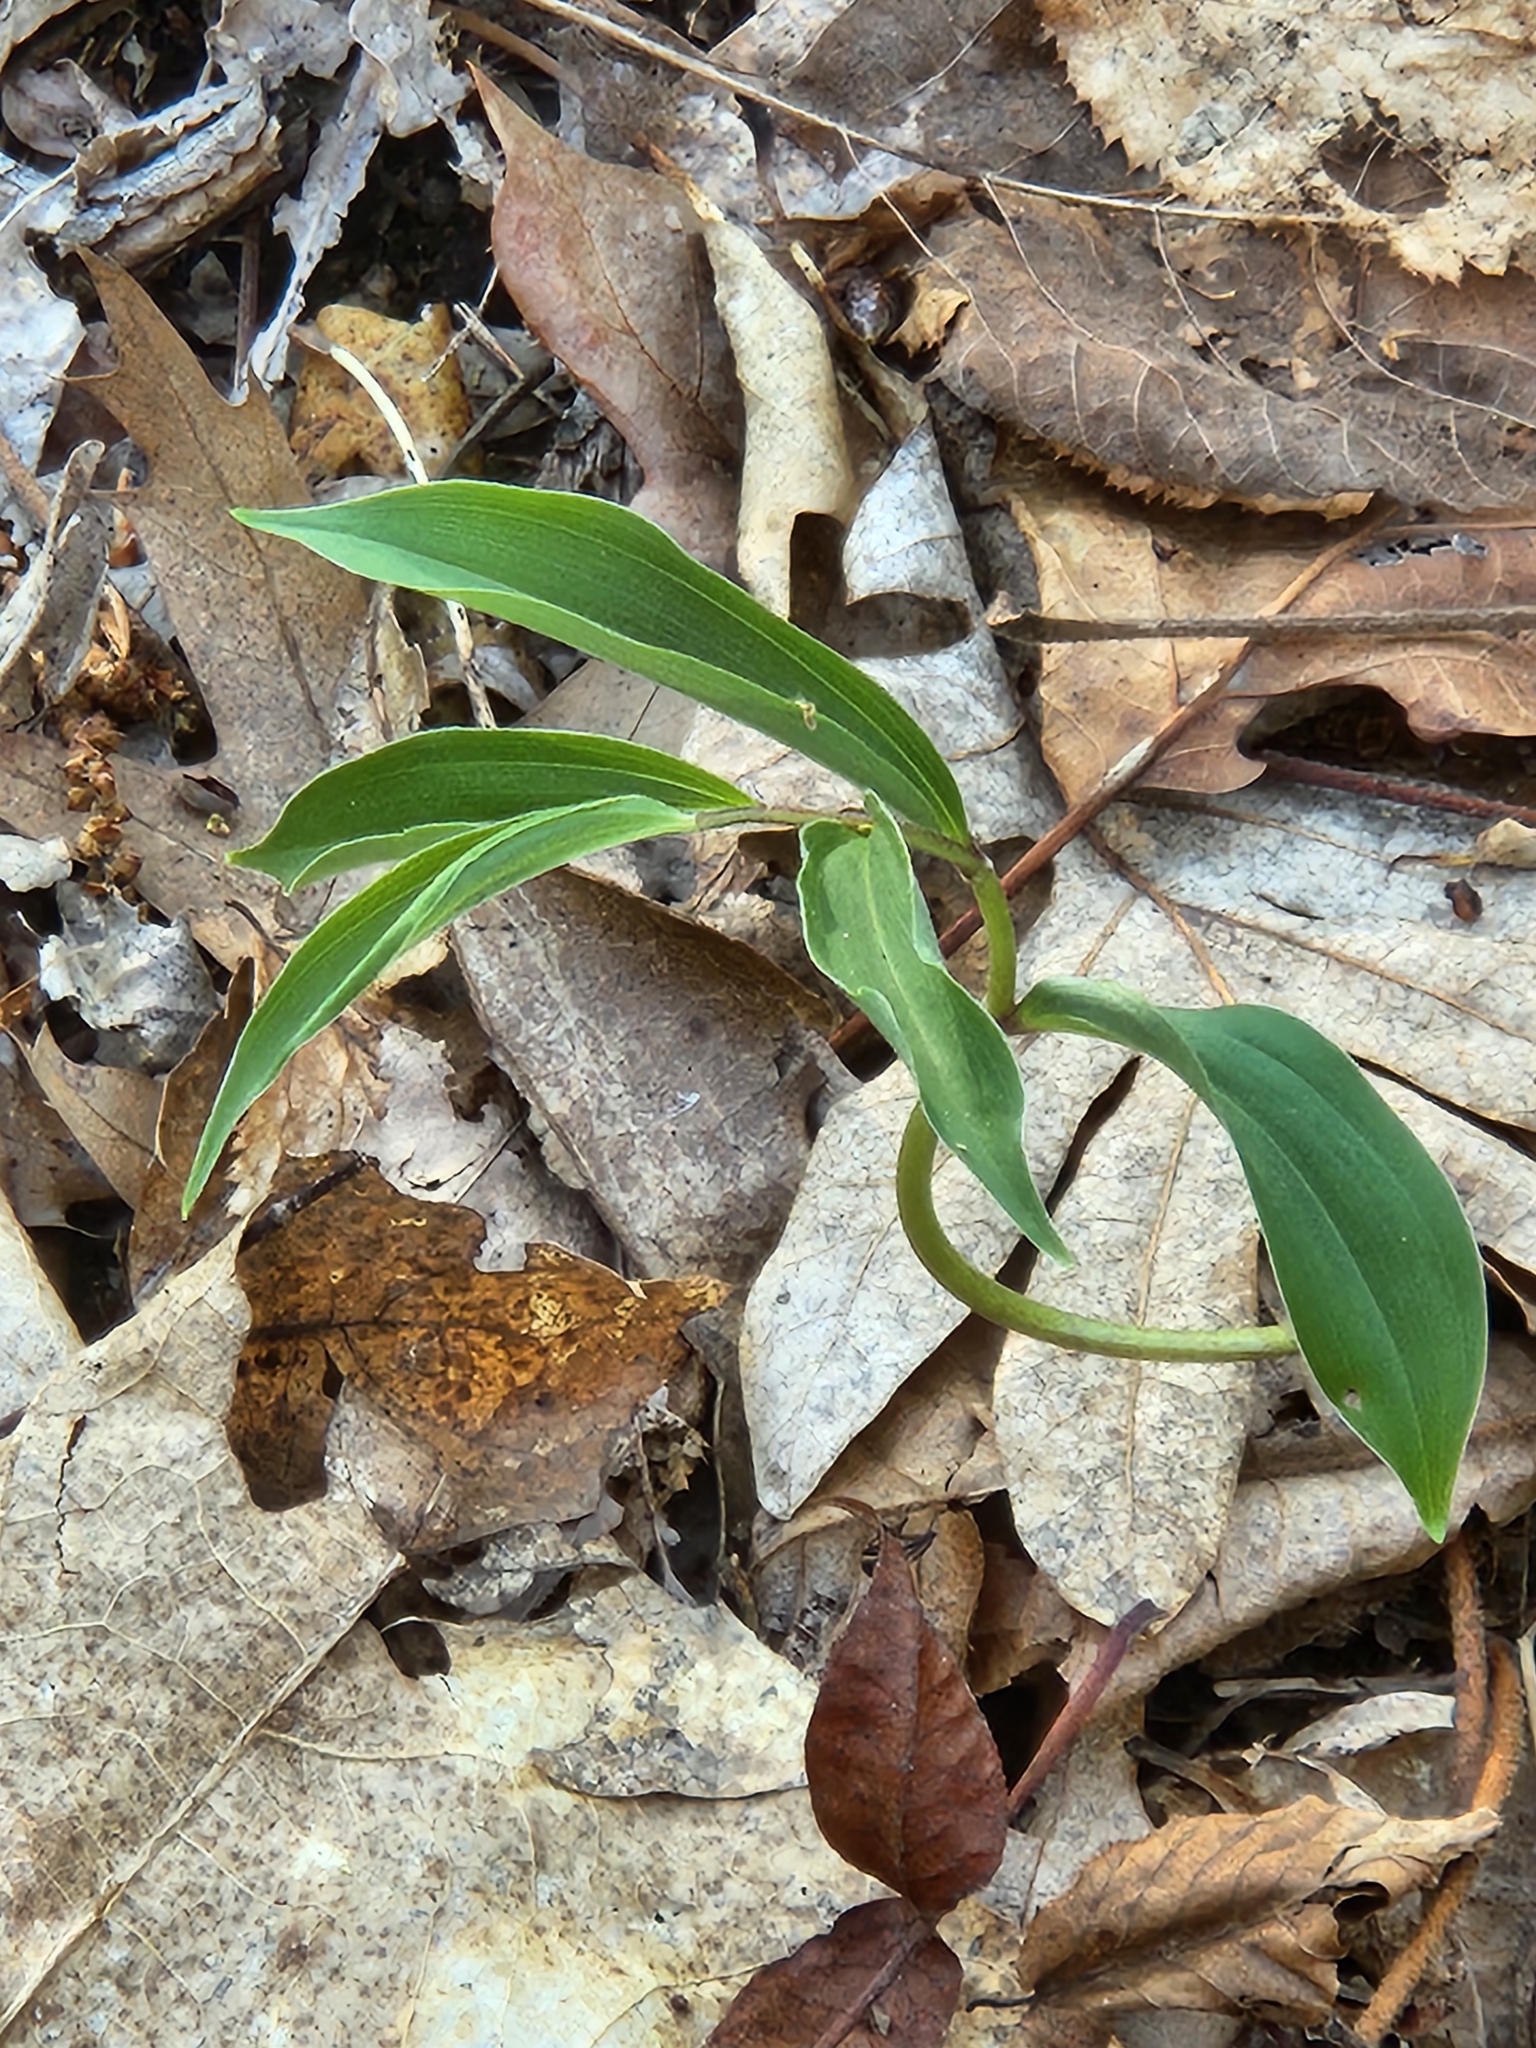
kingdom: Plantae
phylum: Tracheophyta
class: Liliopsida
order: Asparagales
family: Asparagaceae
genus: Maianthemum
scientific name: Maianthemum racemosum
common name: False spikenard
